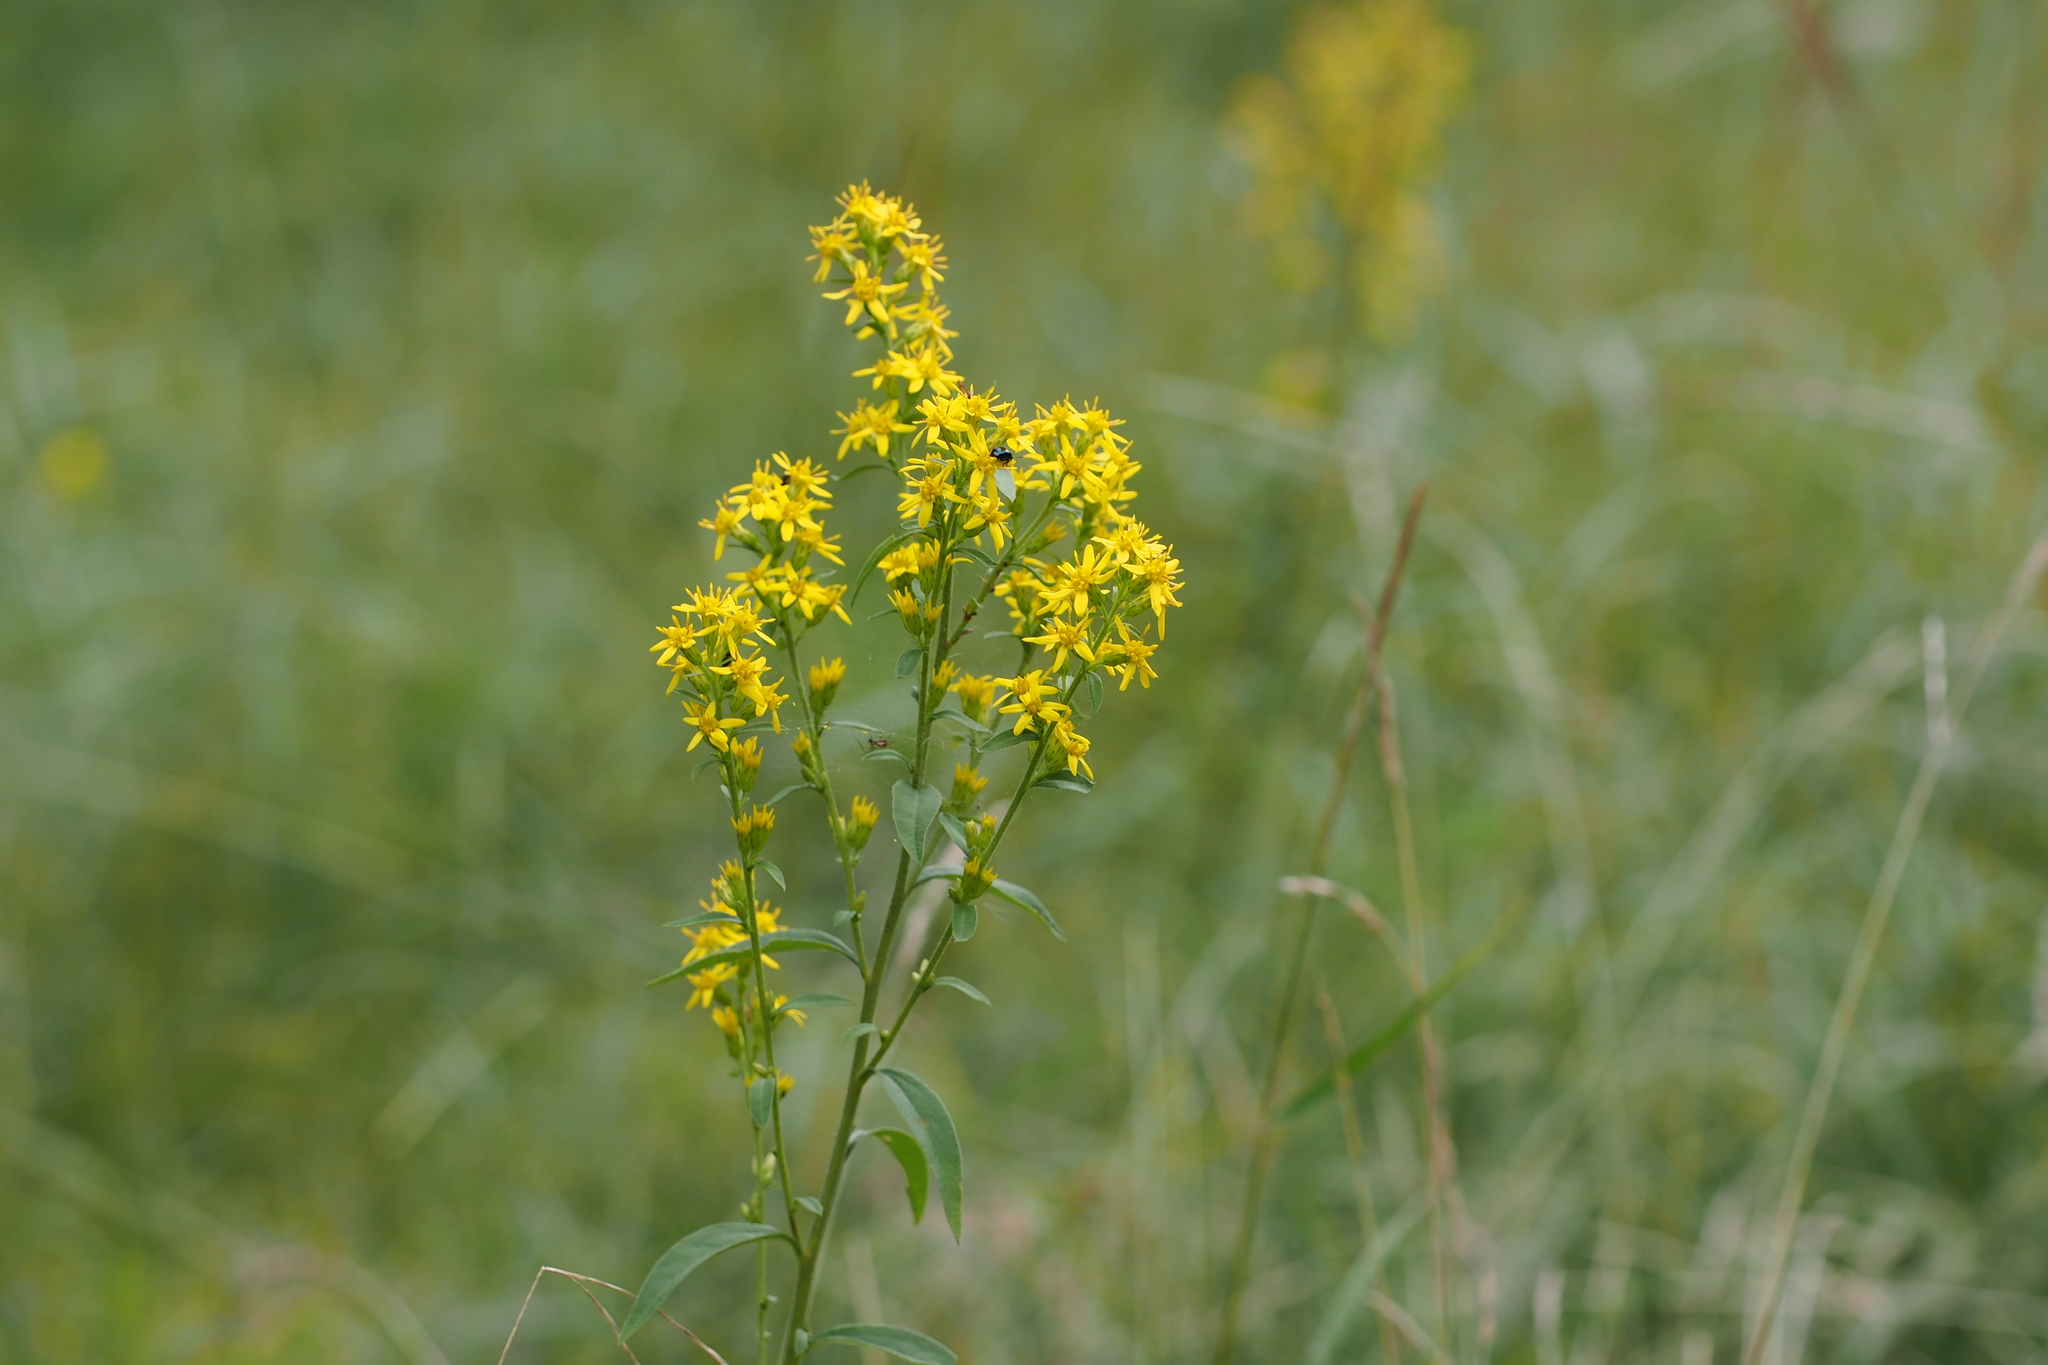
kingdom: Plantae
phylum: Tracheophyta
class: Magnoliopsida
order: Asterales
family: Asteraceae
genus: Solidago
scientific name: Solidago virgaurea
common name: Goldenrod
